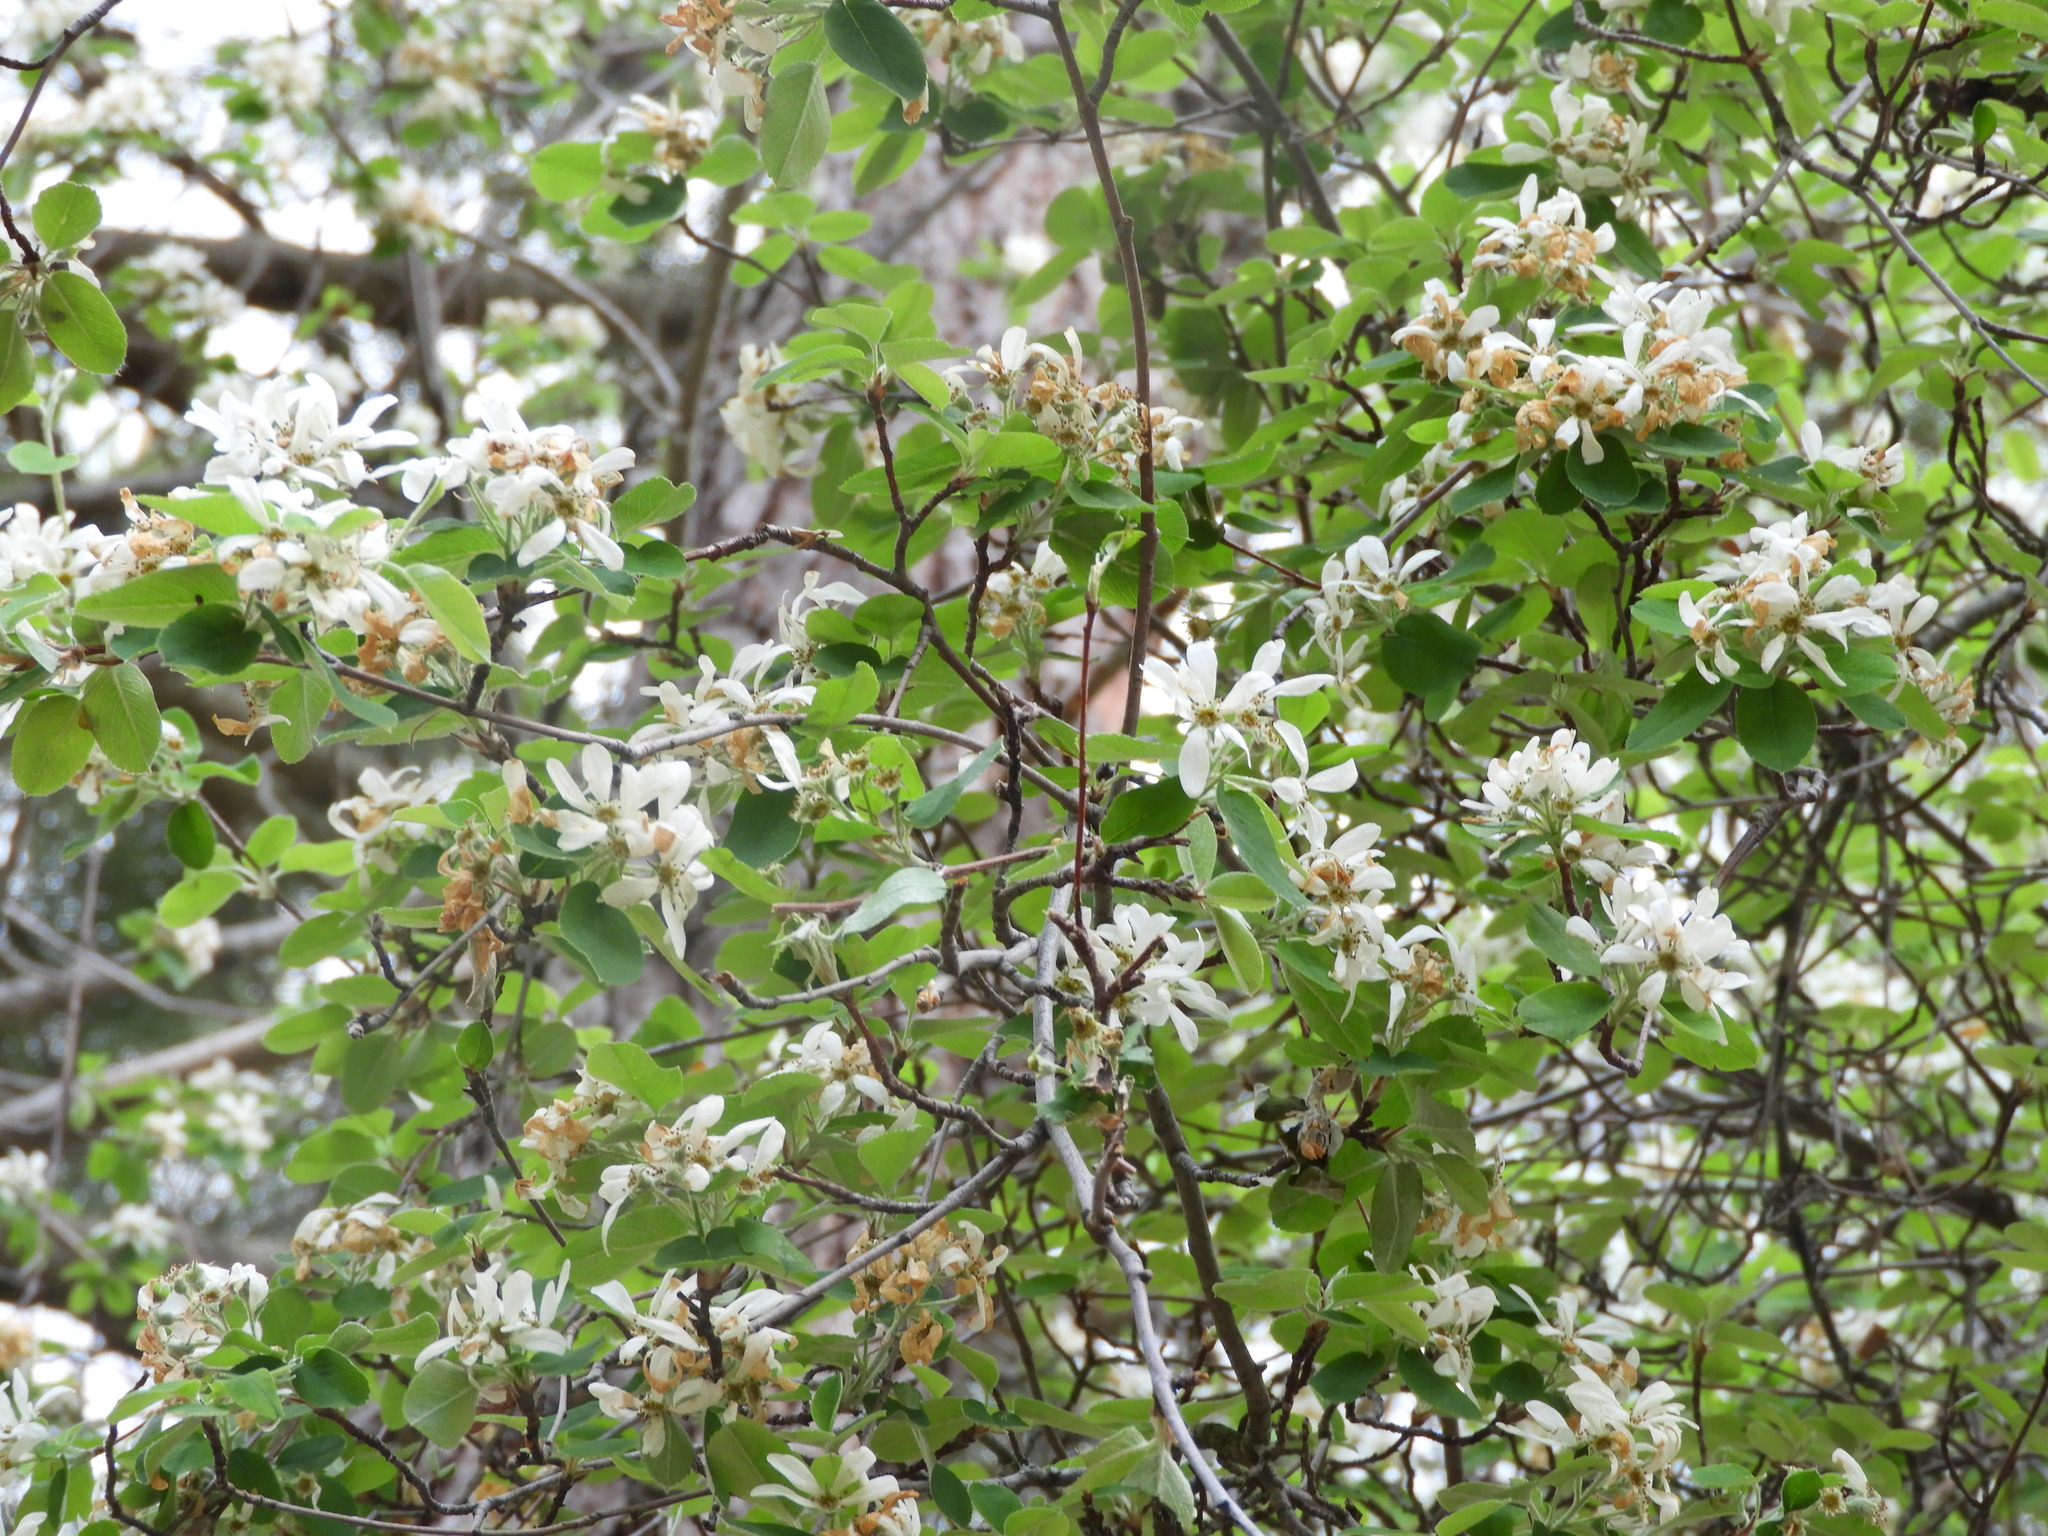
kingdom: Plantae
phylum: Tracheophyta
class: Magnoliopsida
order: Rosales
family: Rosaceae
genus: Amelanchier
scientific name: Amelanchier ovalis
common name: Serviceberry
